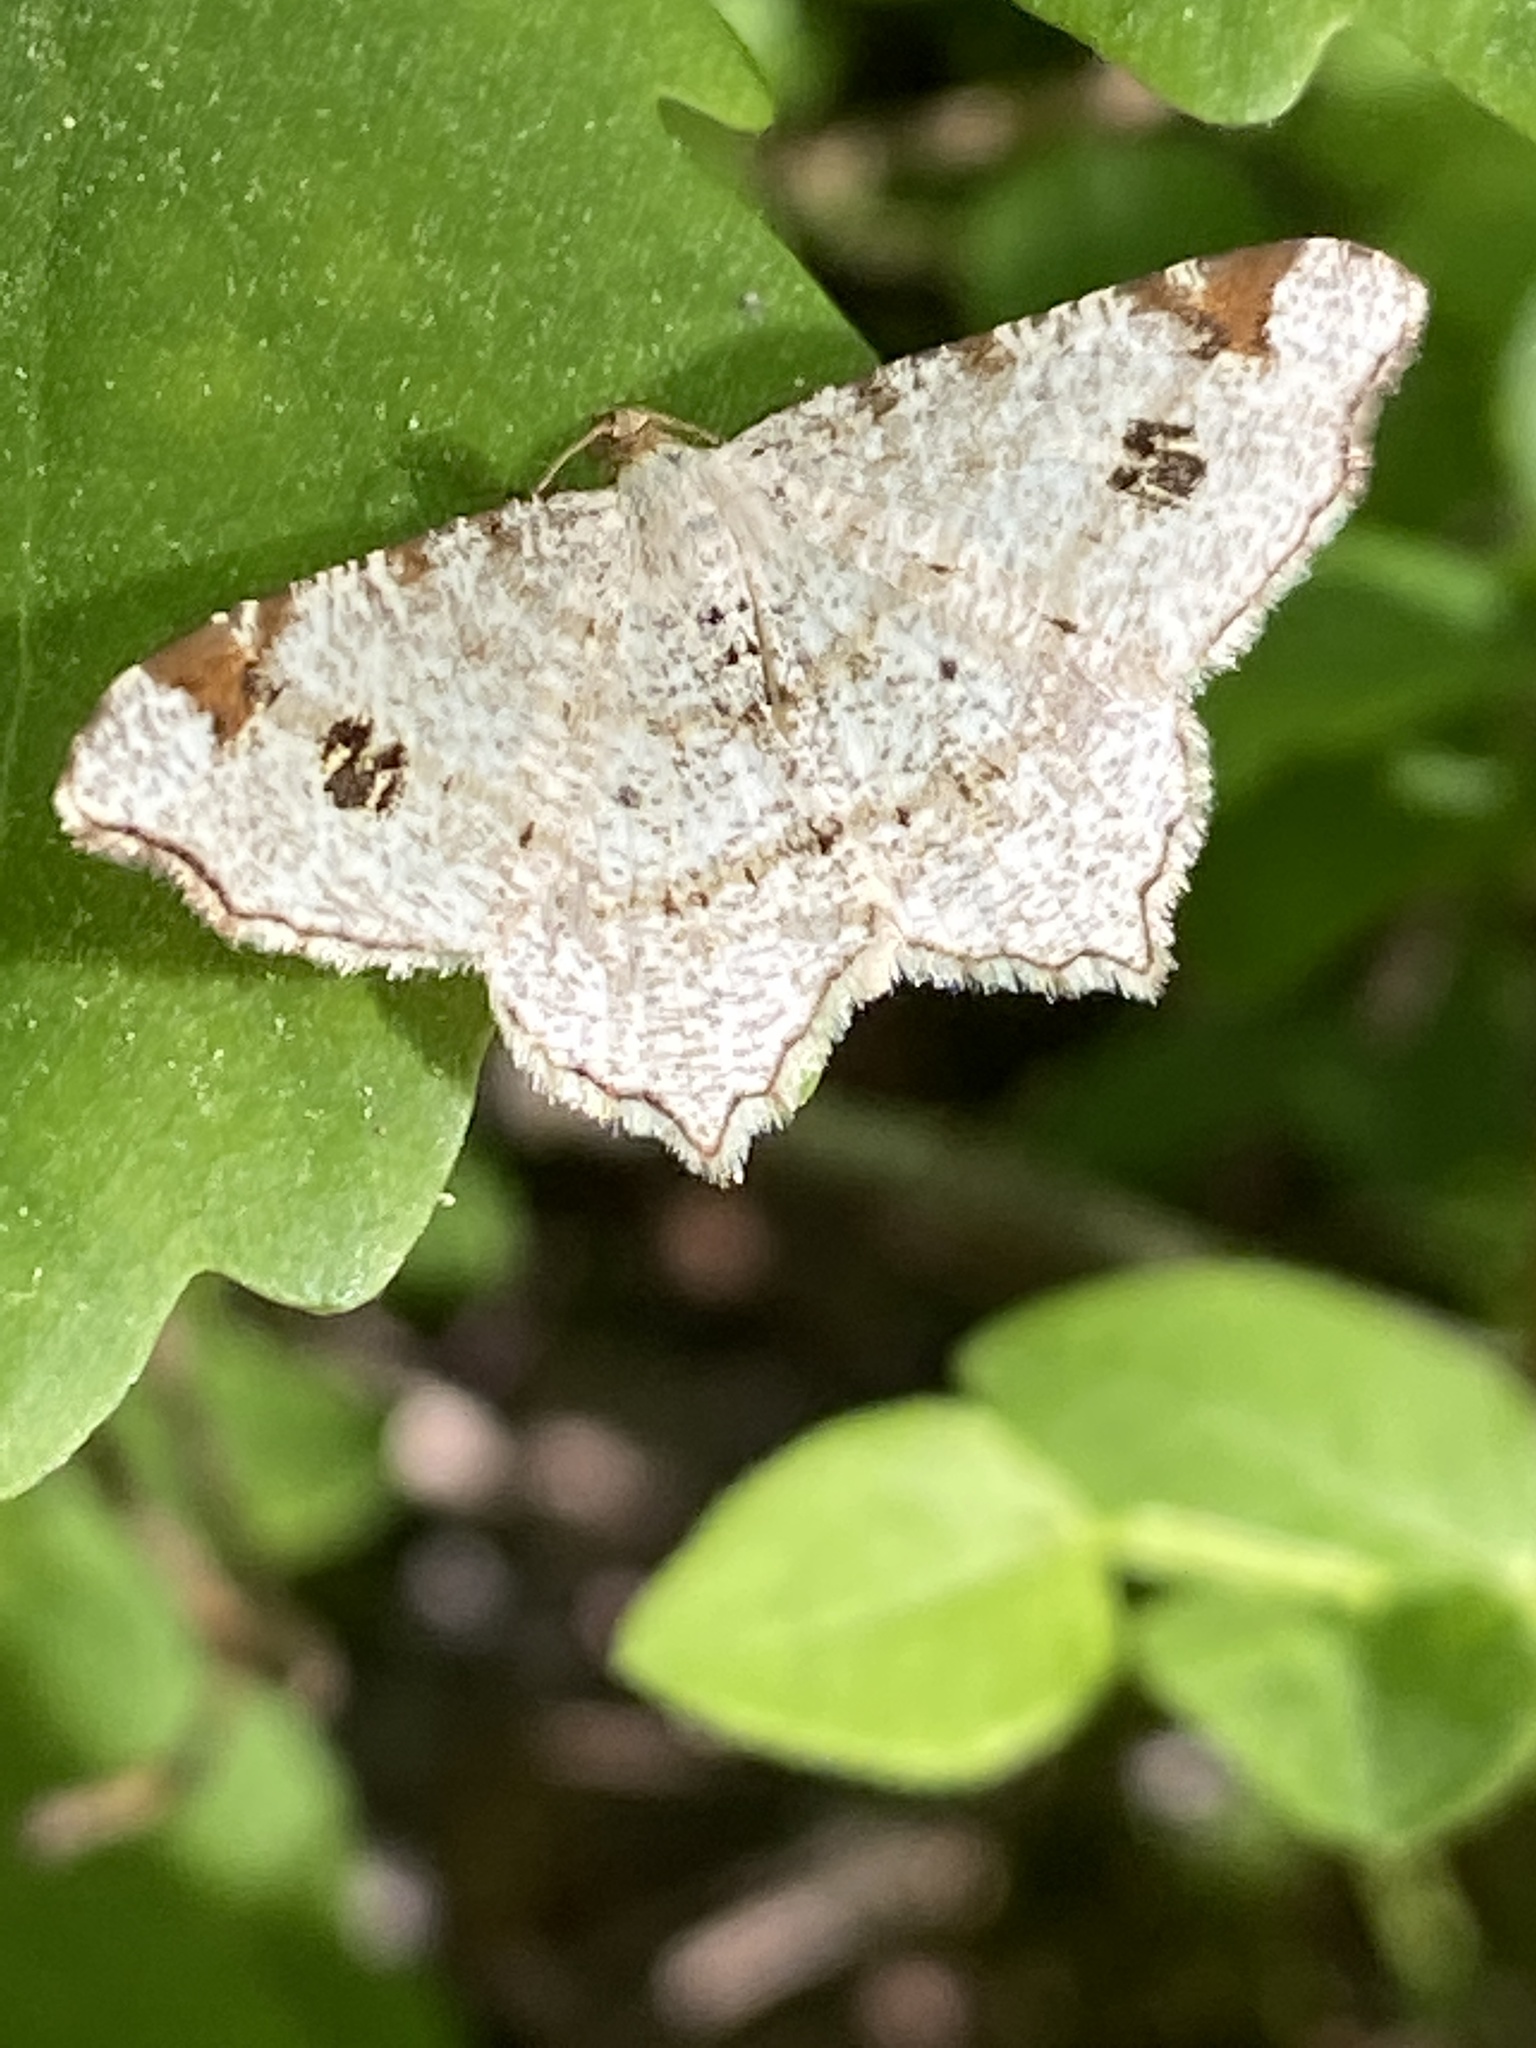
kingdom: Animalia
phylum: Arthropoda
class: Insecta
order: Lepidoptera
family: Geometridae
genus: Macaria
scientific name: Macaria notata
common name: Peacock moth
